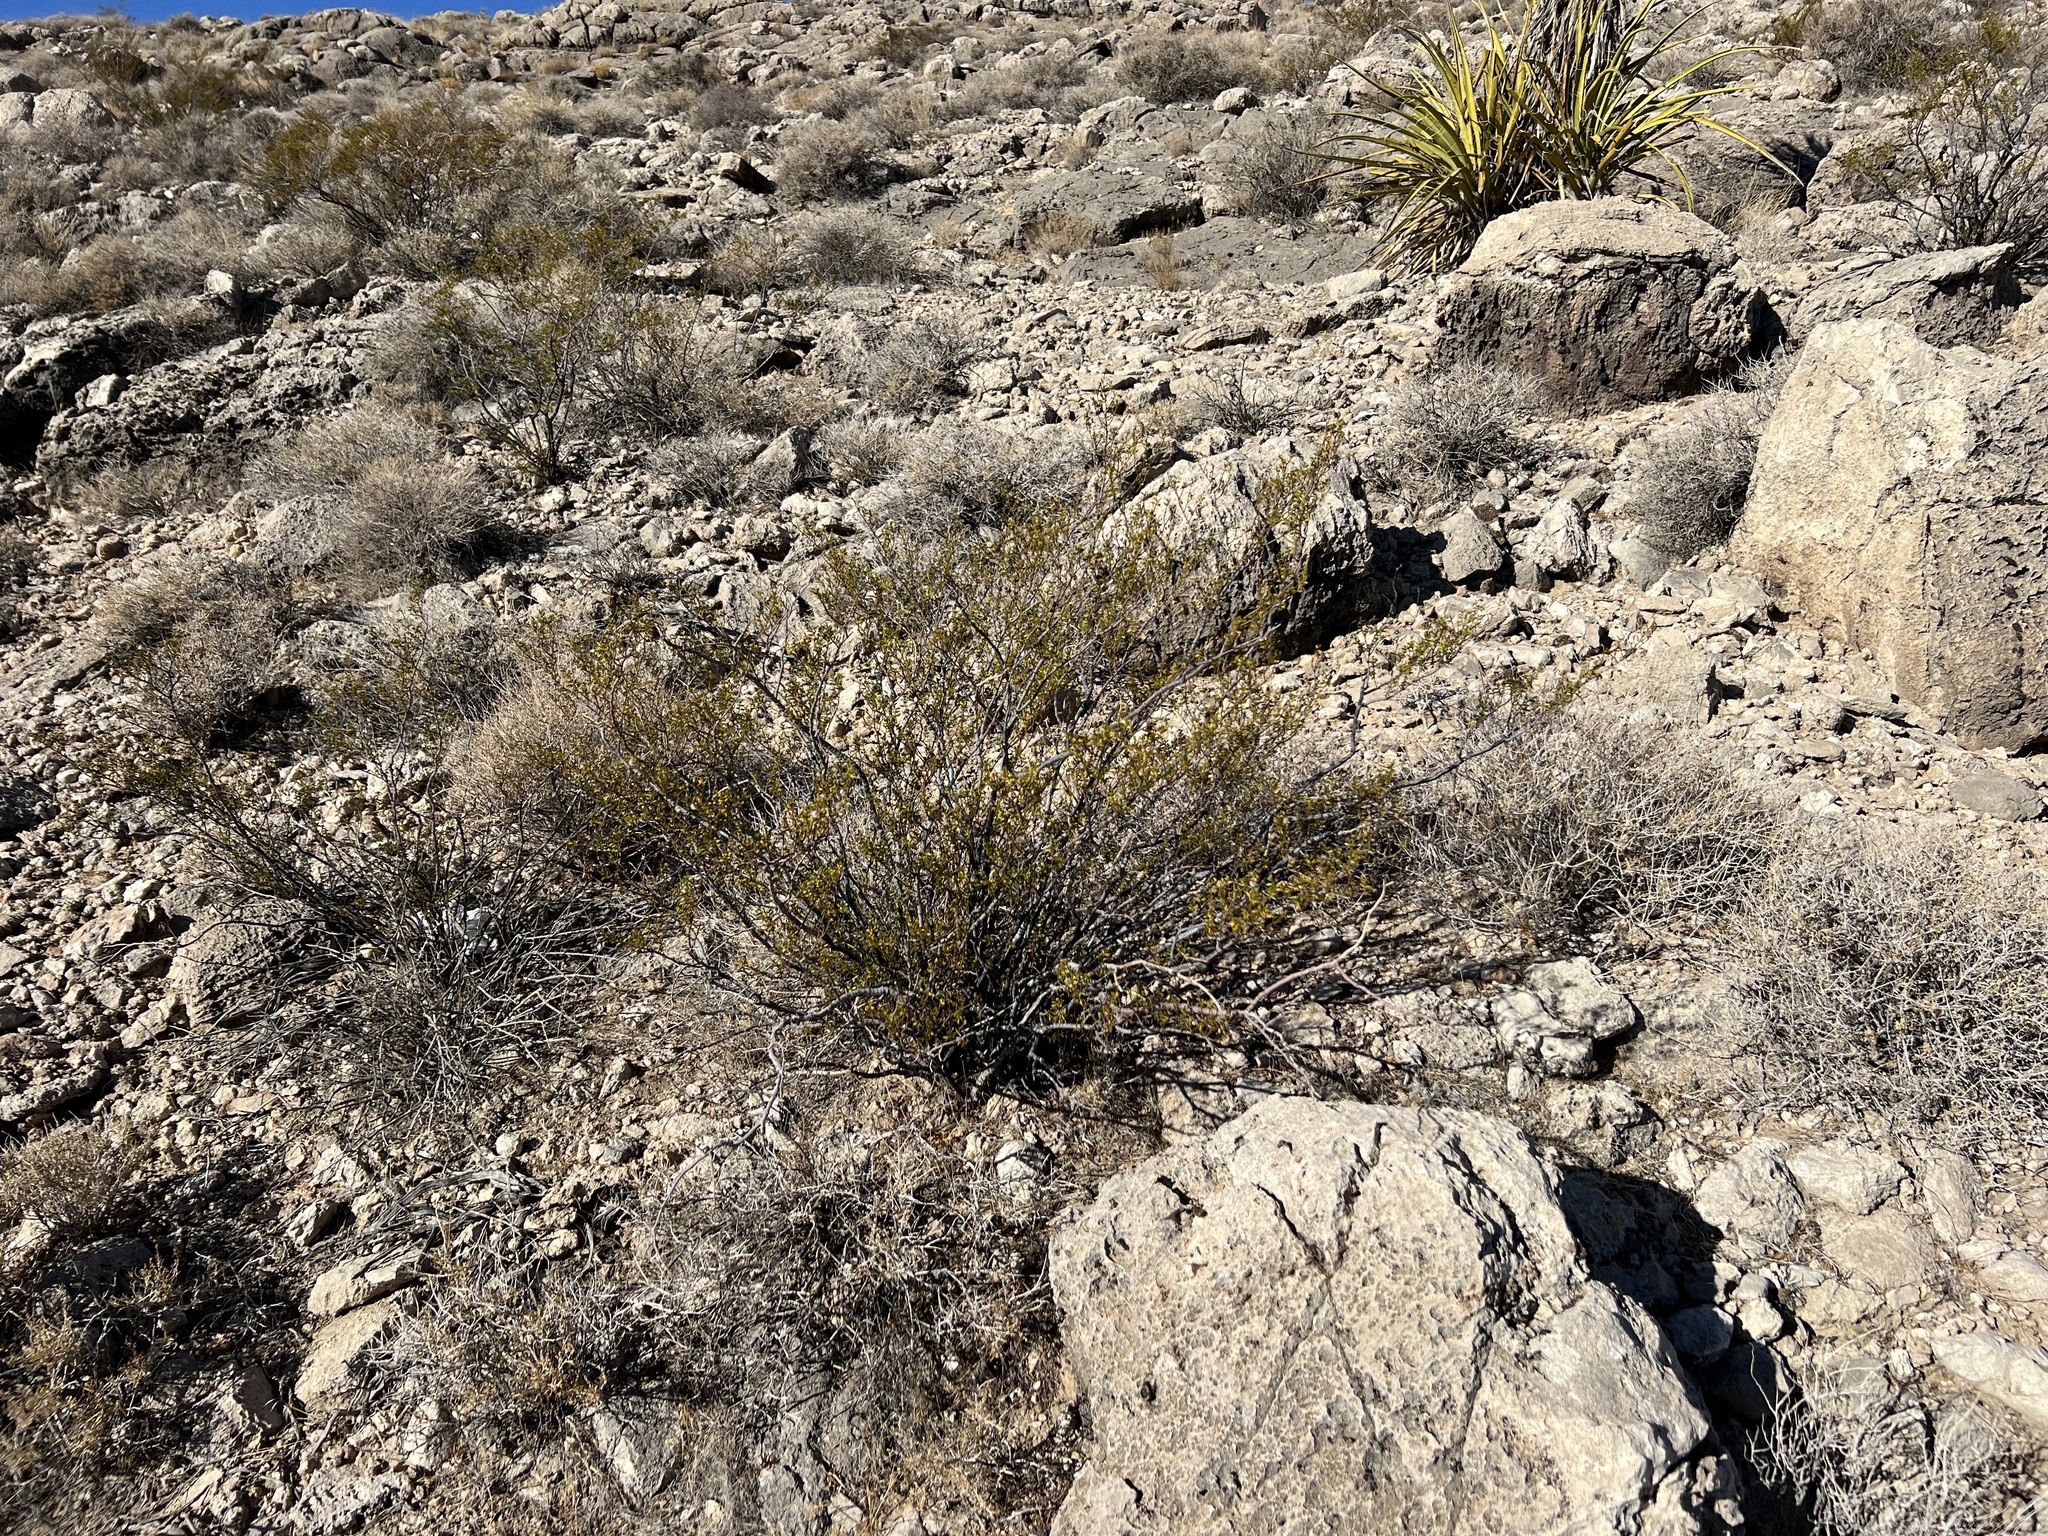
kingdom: Plantae
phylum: Tracheophyta
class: Magnoliopsida
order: Zygophyllales
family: Zygophyllaceae
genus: Larrea
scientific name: Larrea tridentata
